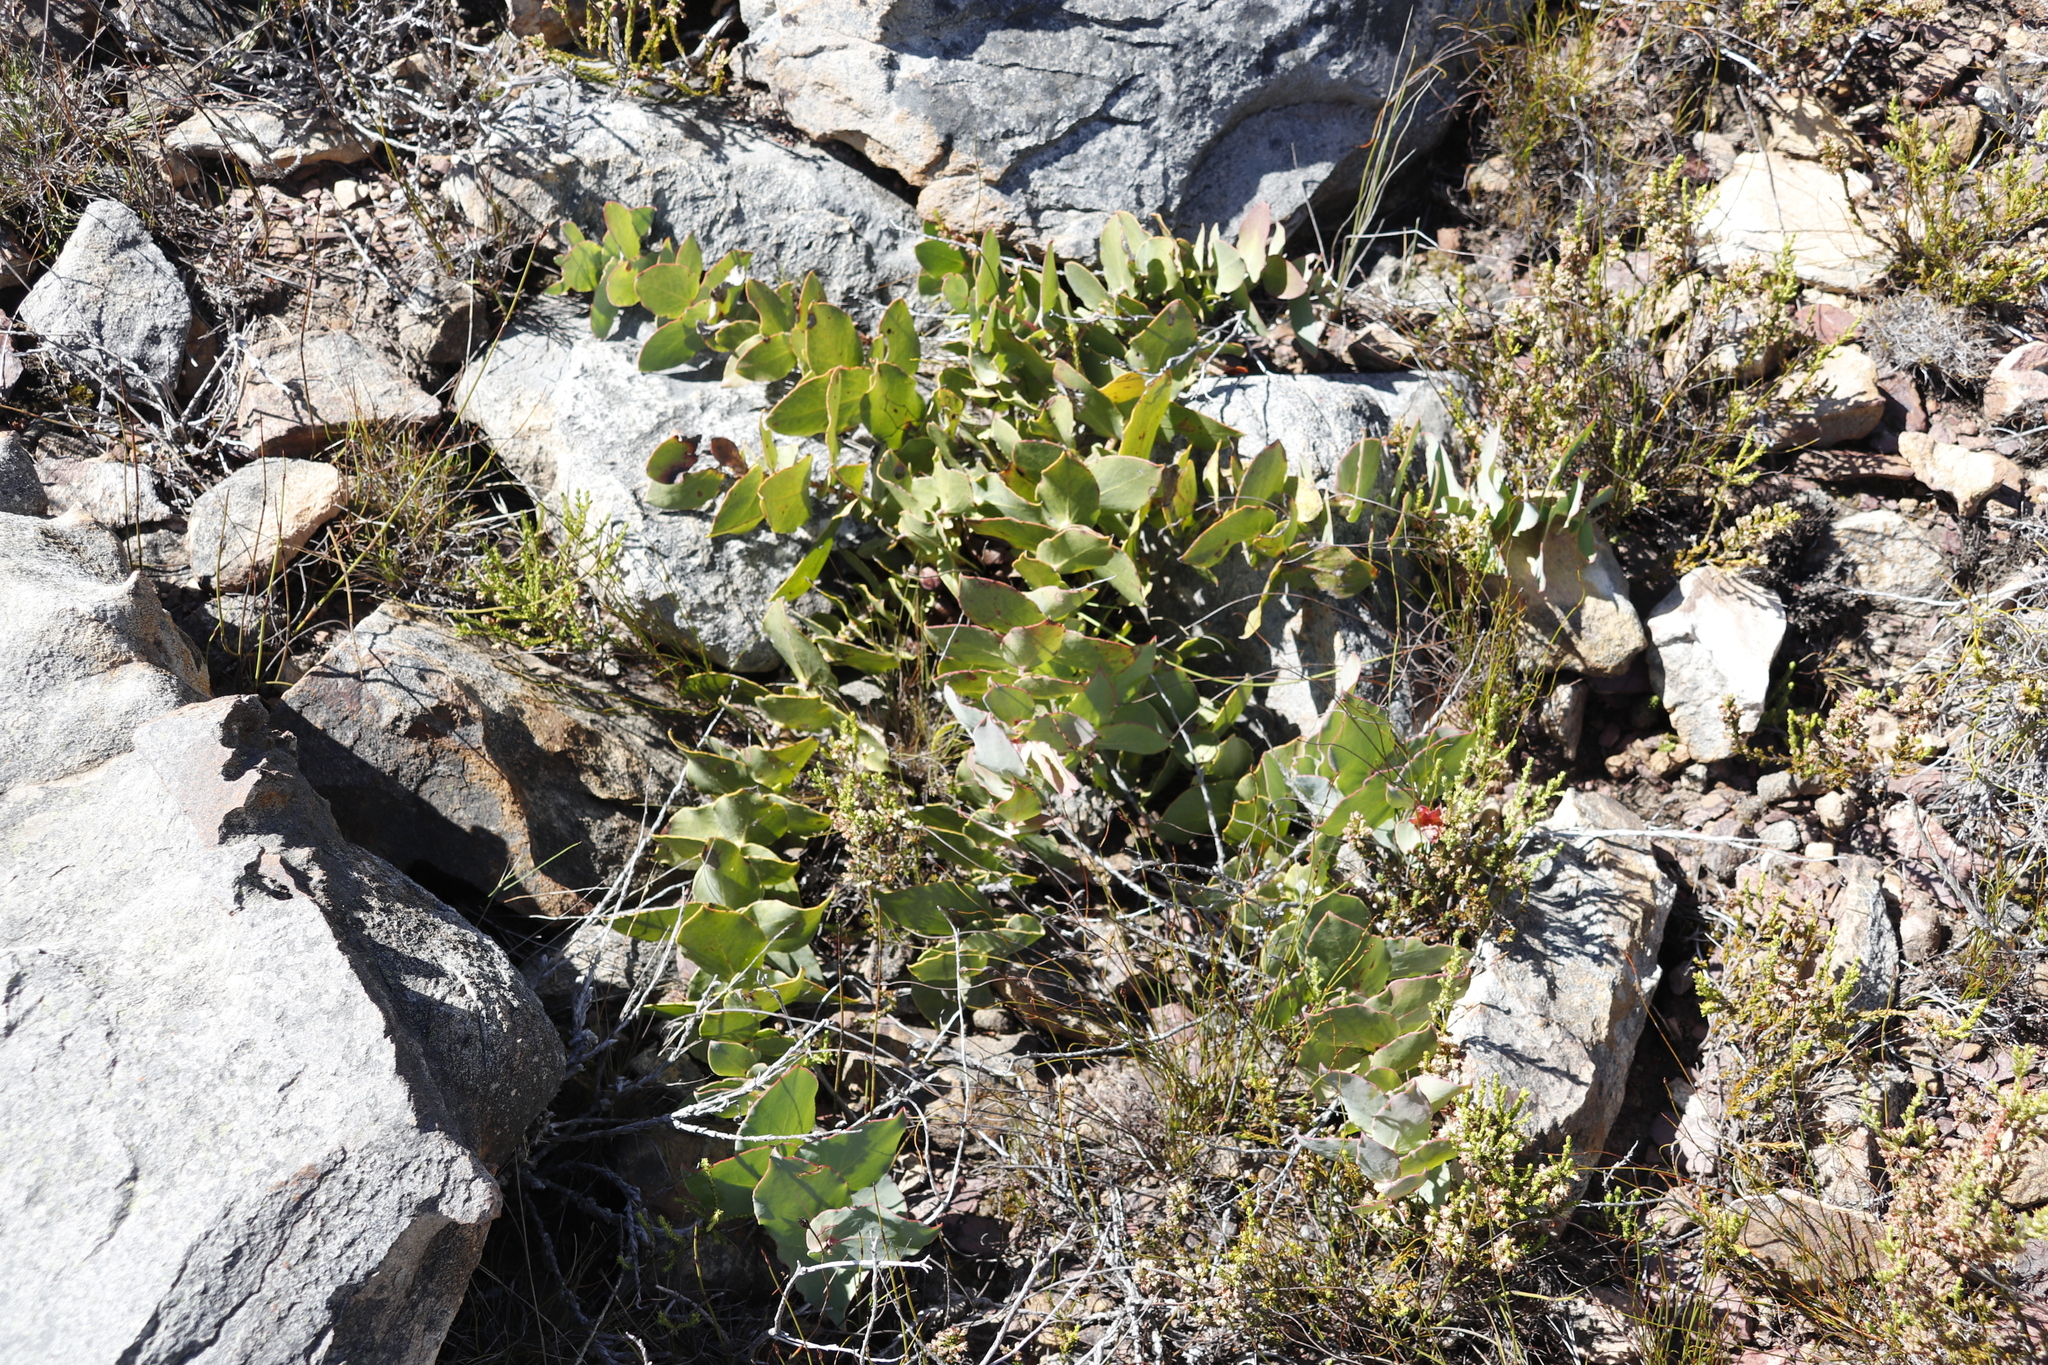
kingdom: Plantae
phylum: Tracheophyta
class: Magnoliopsida
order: Proteales
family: Proteaceae
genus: Protea
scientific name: Protea amplexicaulis
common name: Clasping-leaf sugarbush
